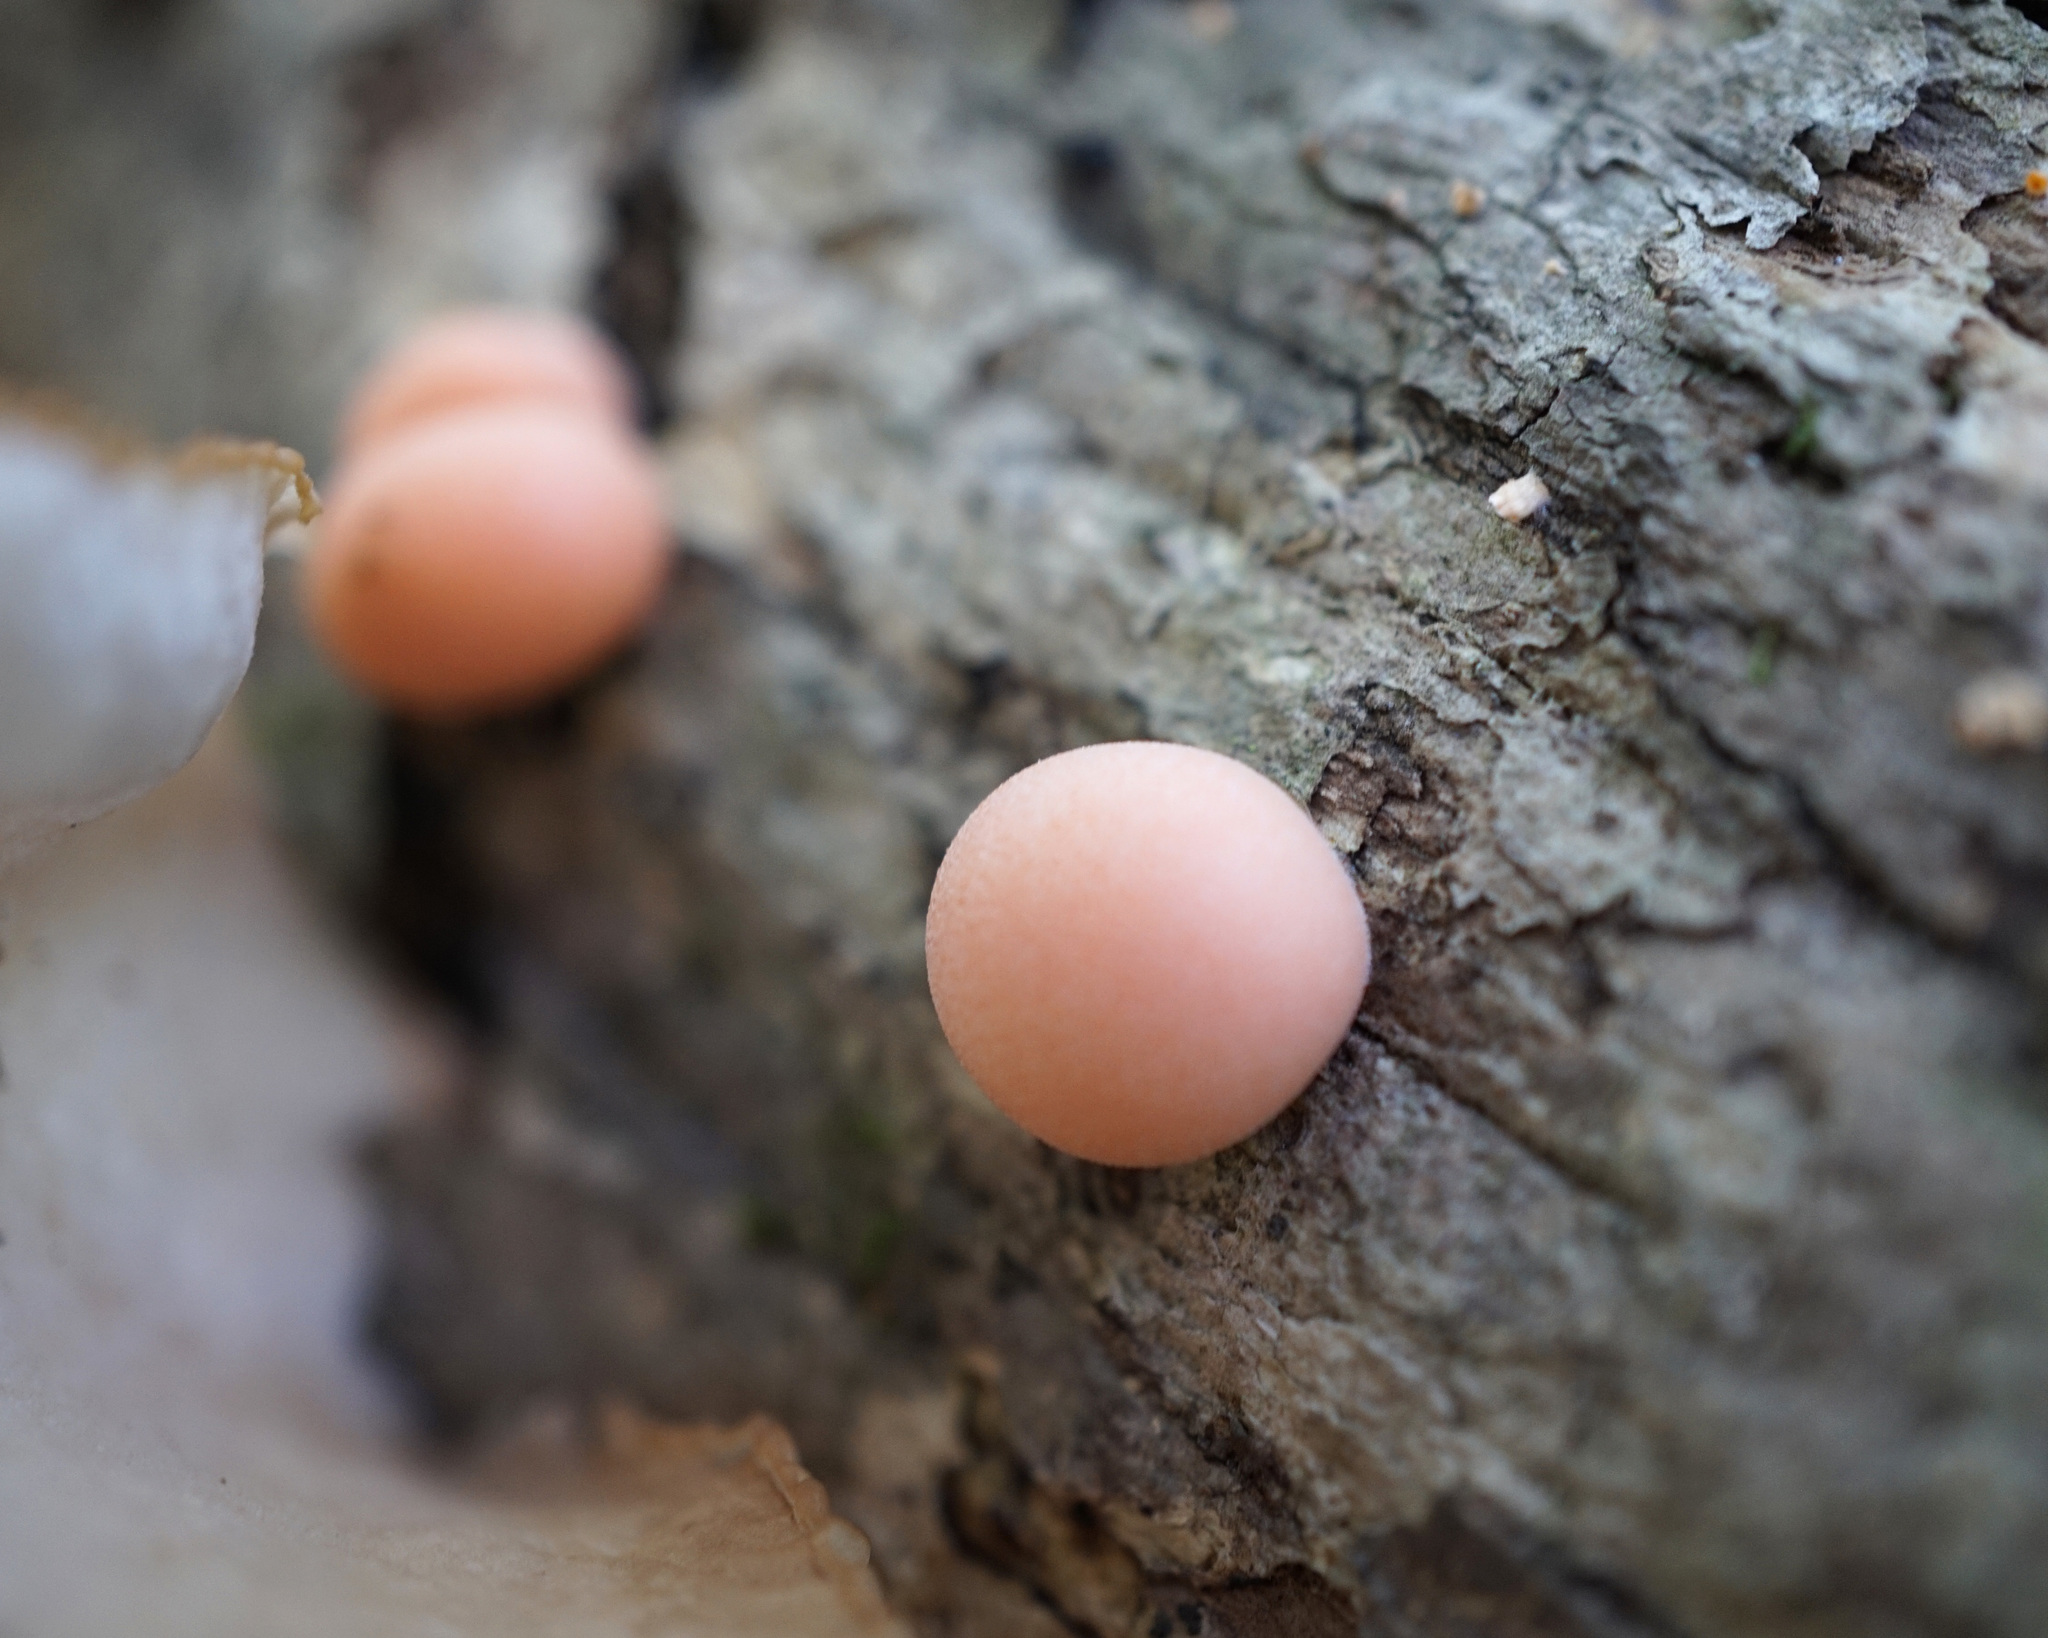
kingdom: Protozoa
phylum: Mycetozoa
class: Myxomycetes
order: Cribrariales
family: Tubiferaceae
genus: Lycogala
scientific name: Lycogala epidendrum
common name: Wolf's milk
